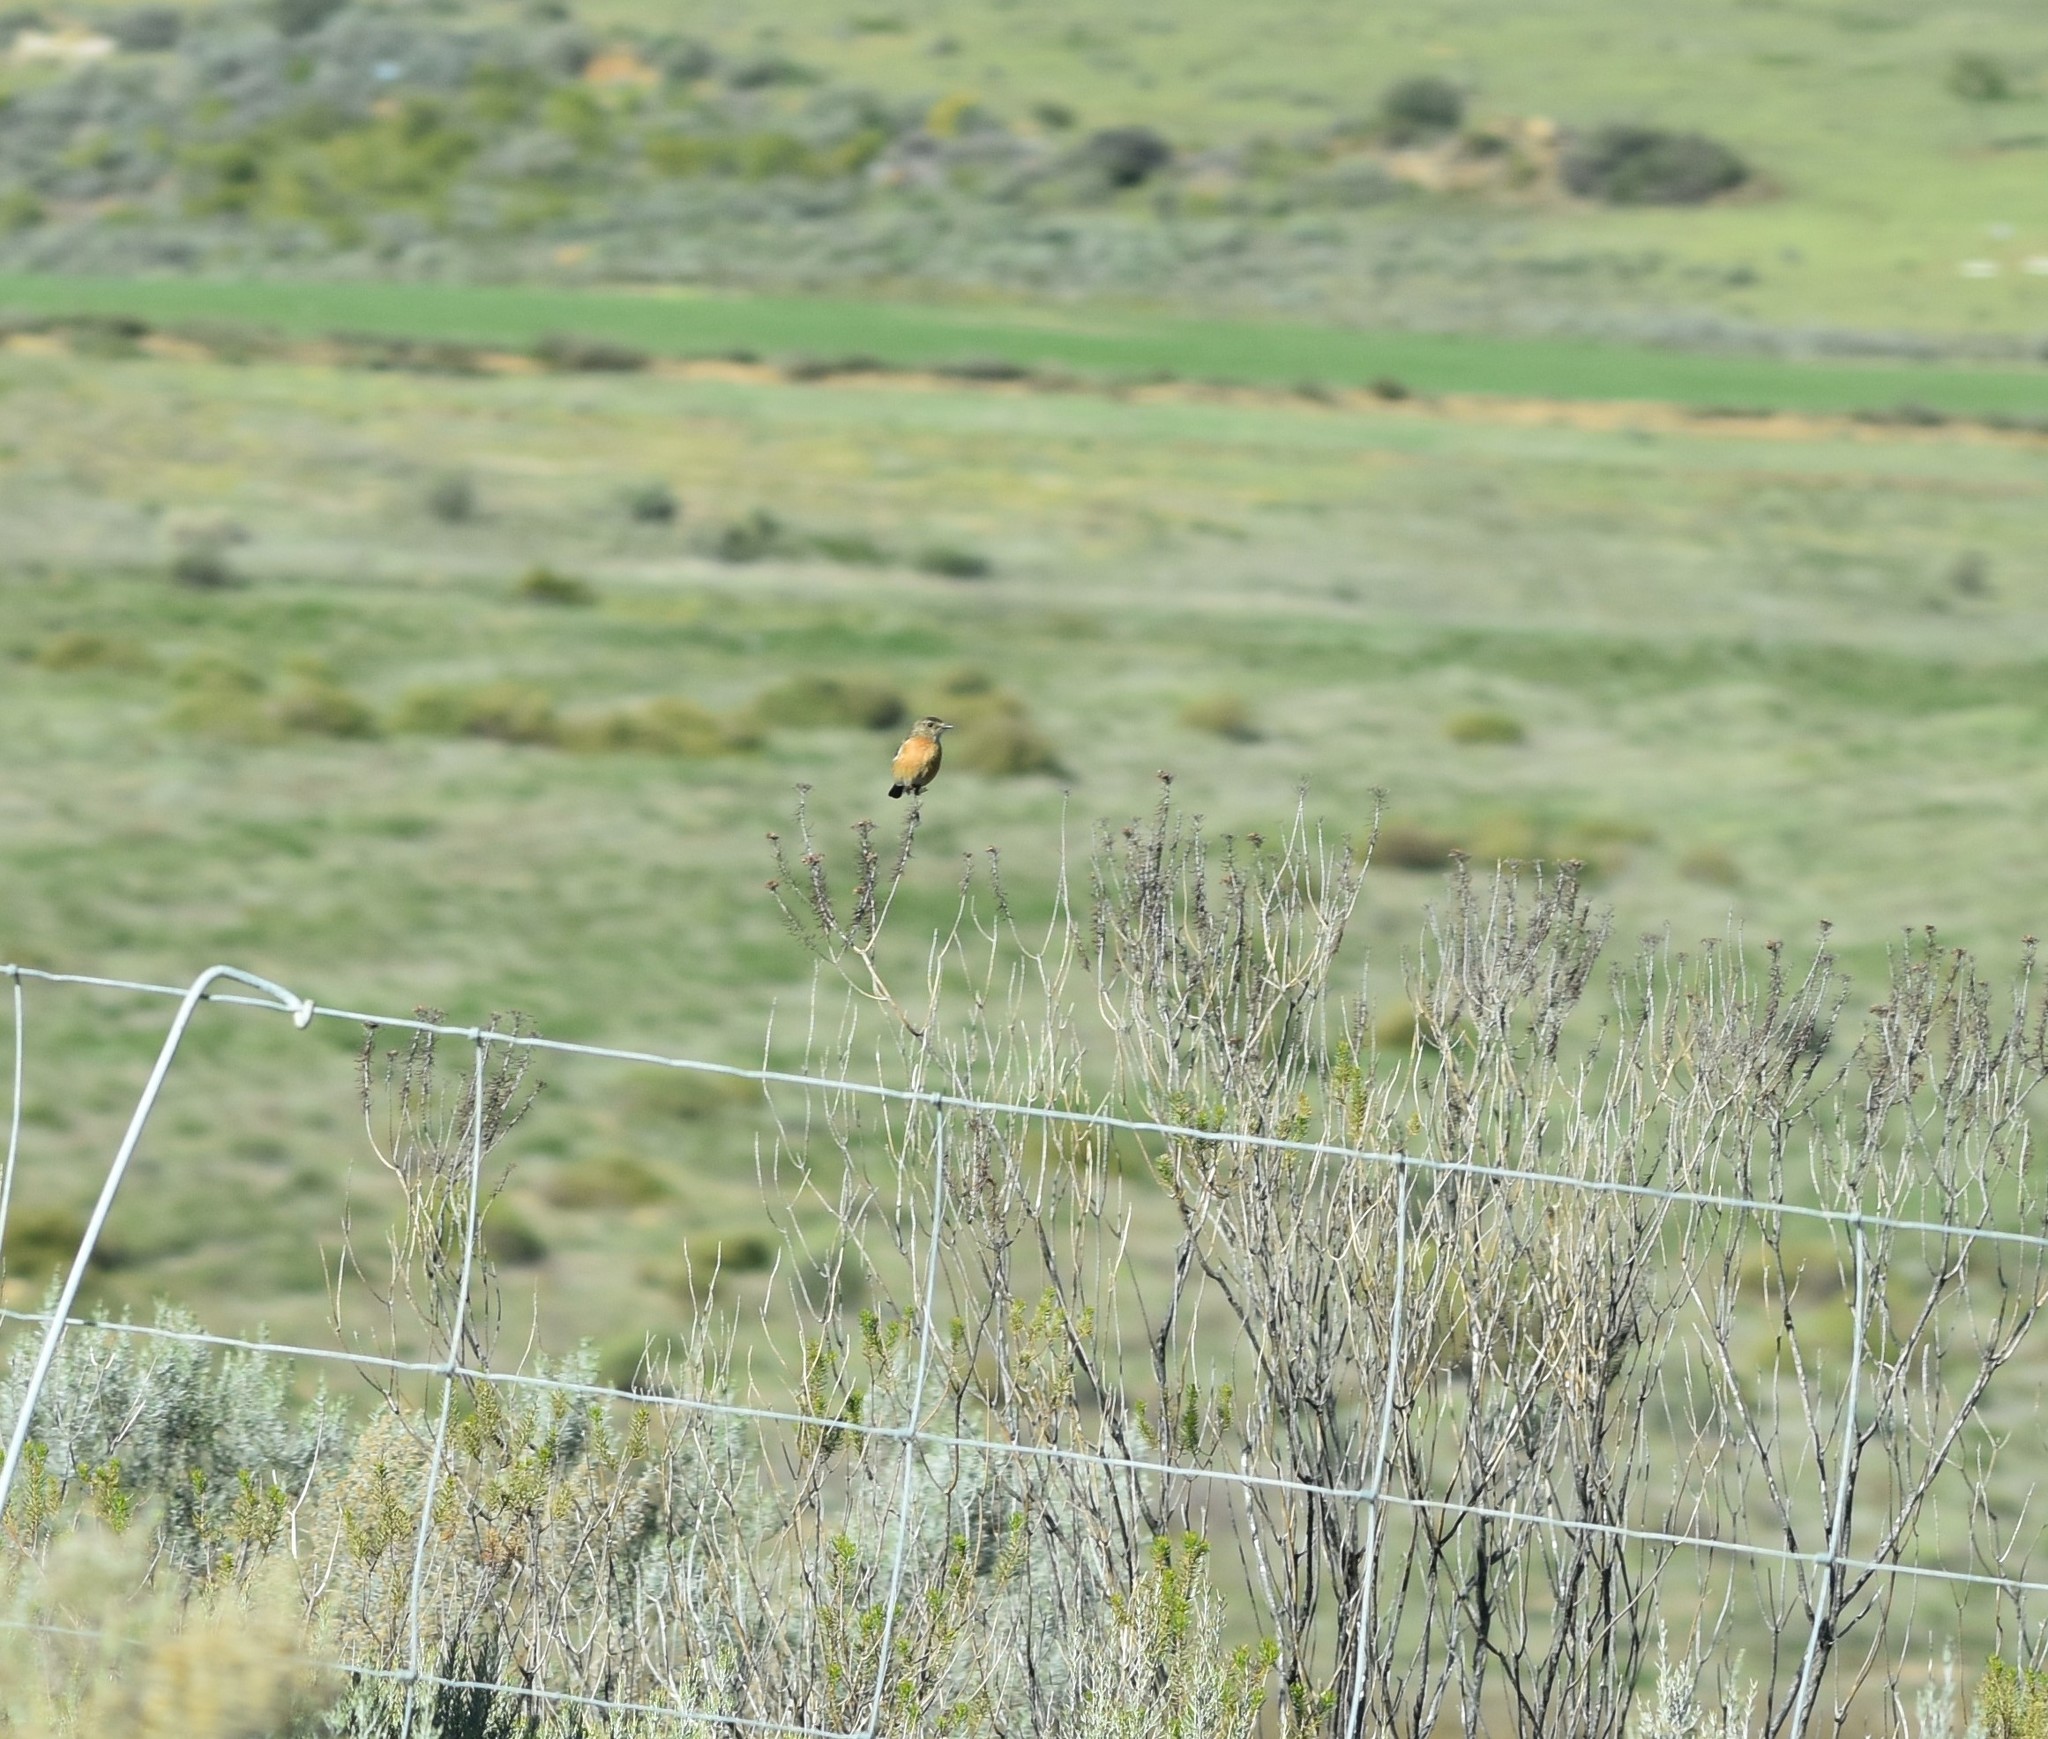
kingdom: Animalia
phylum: Chordata
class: Aves
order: Passeriformes
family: Muscicapidae
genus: Saxicola
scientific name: Saxicola torquatus
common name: African stonechat
